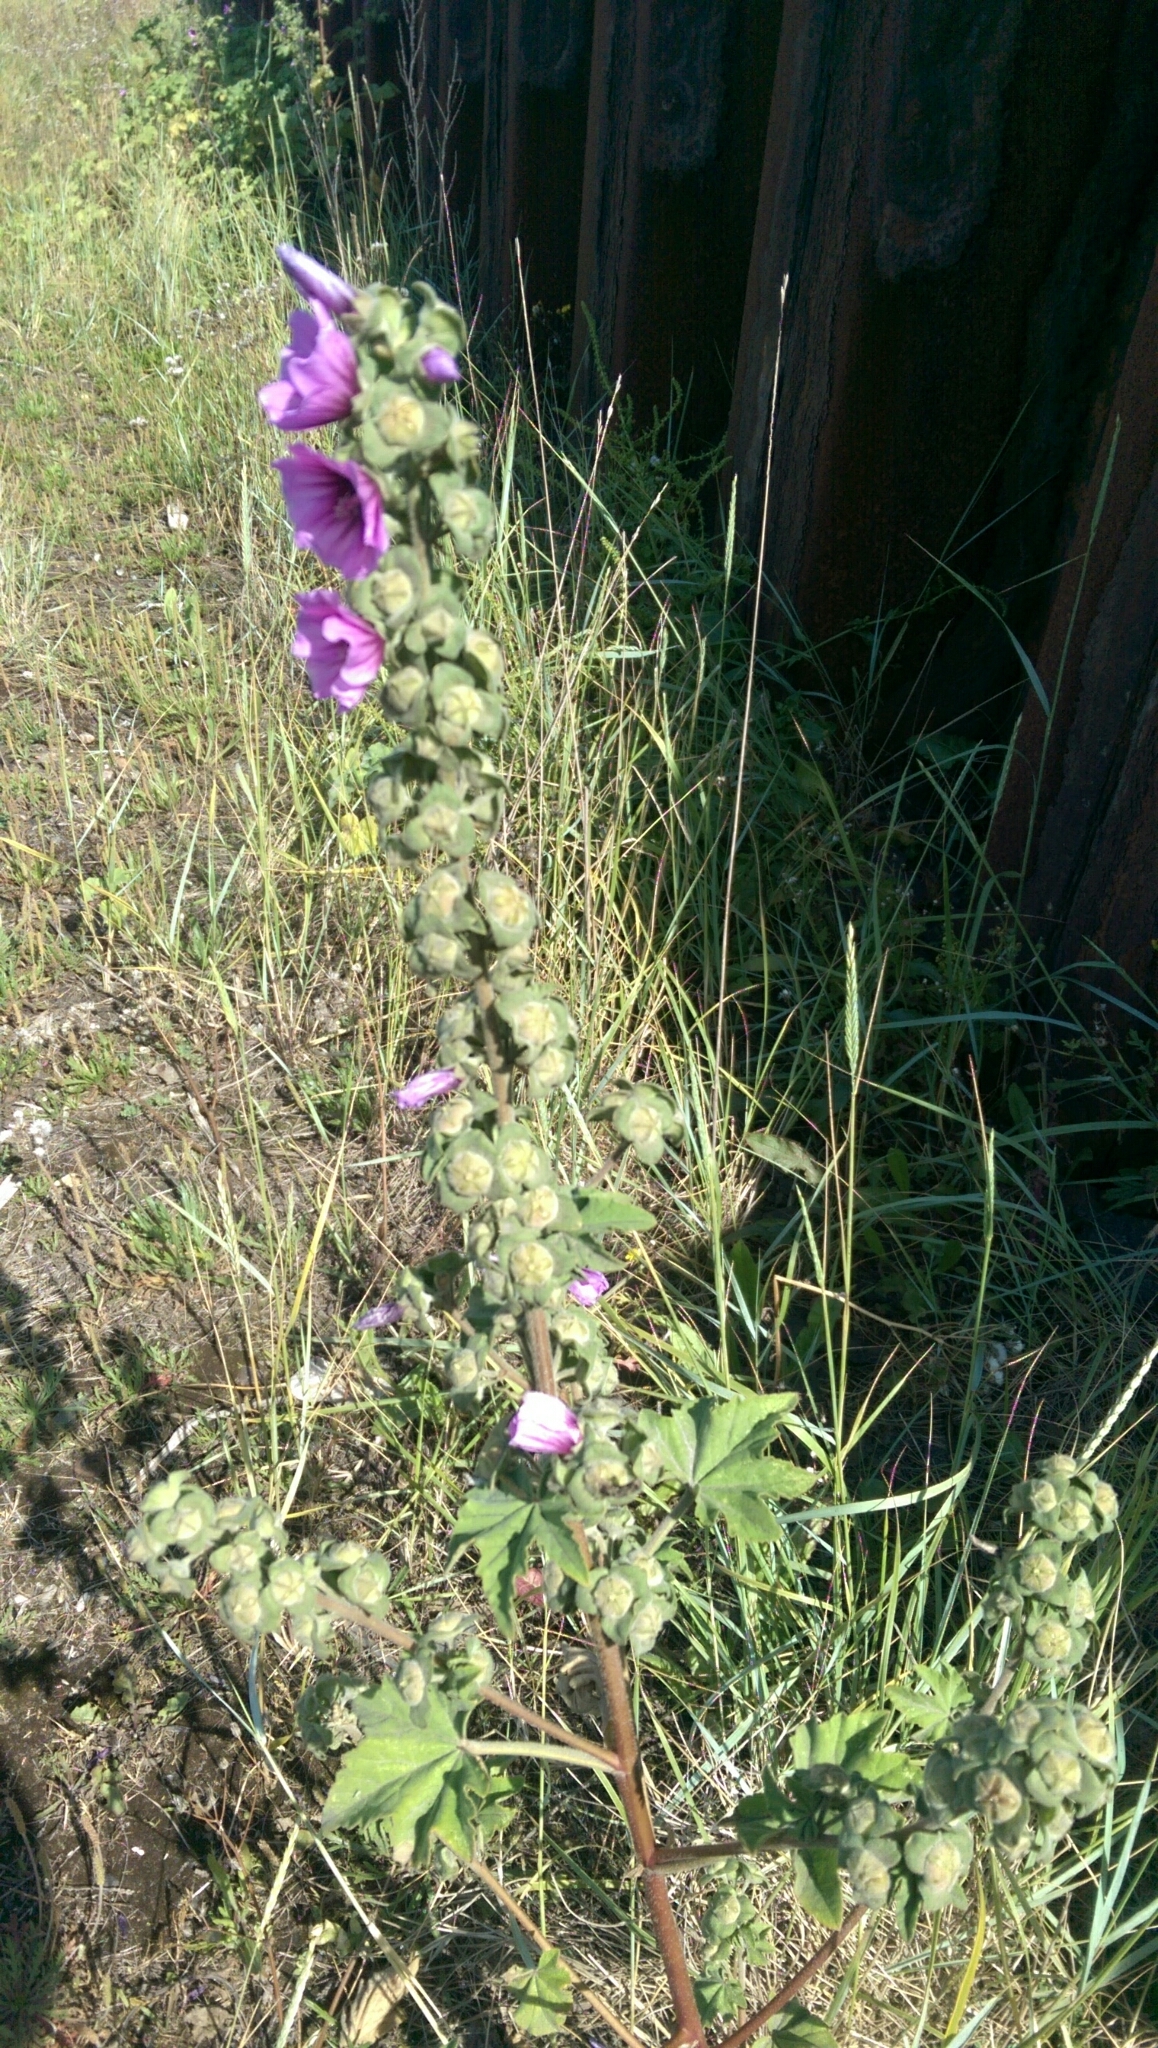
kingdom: Plantae
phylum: Tracheophyta
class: Magnoliopsida
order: Malvales
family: Malvaceae
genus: Malva
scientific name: Malva arborea
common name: Tree mallow
